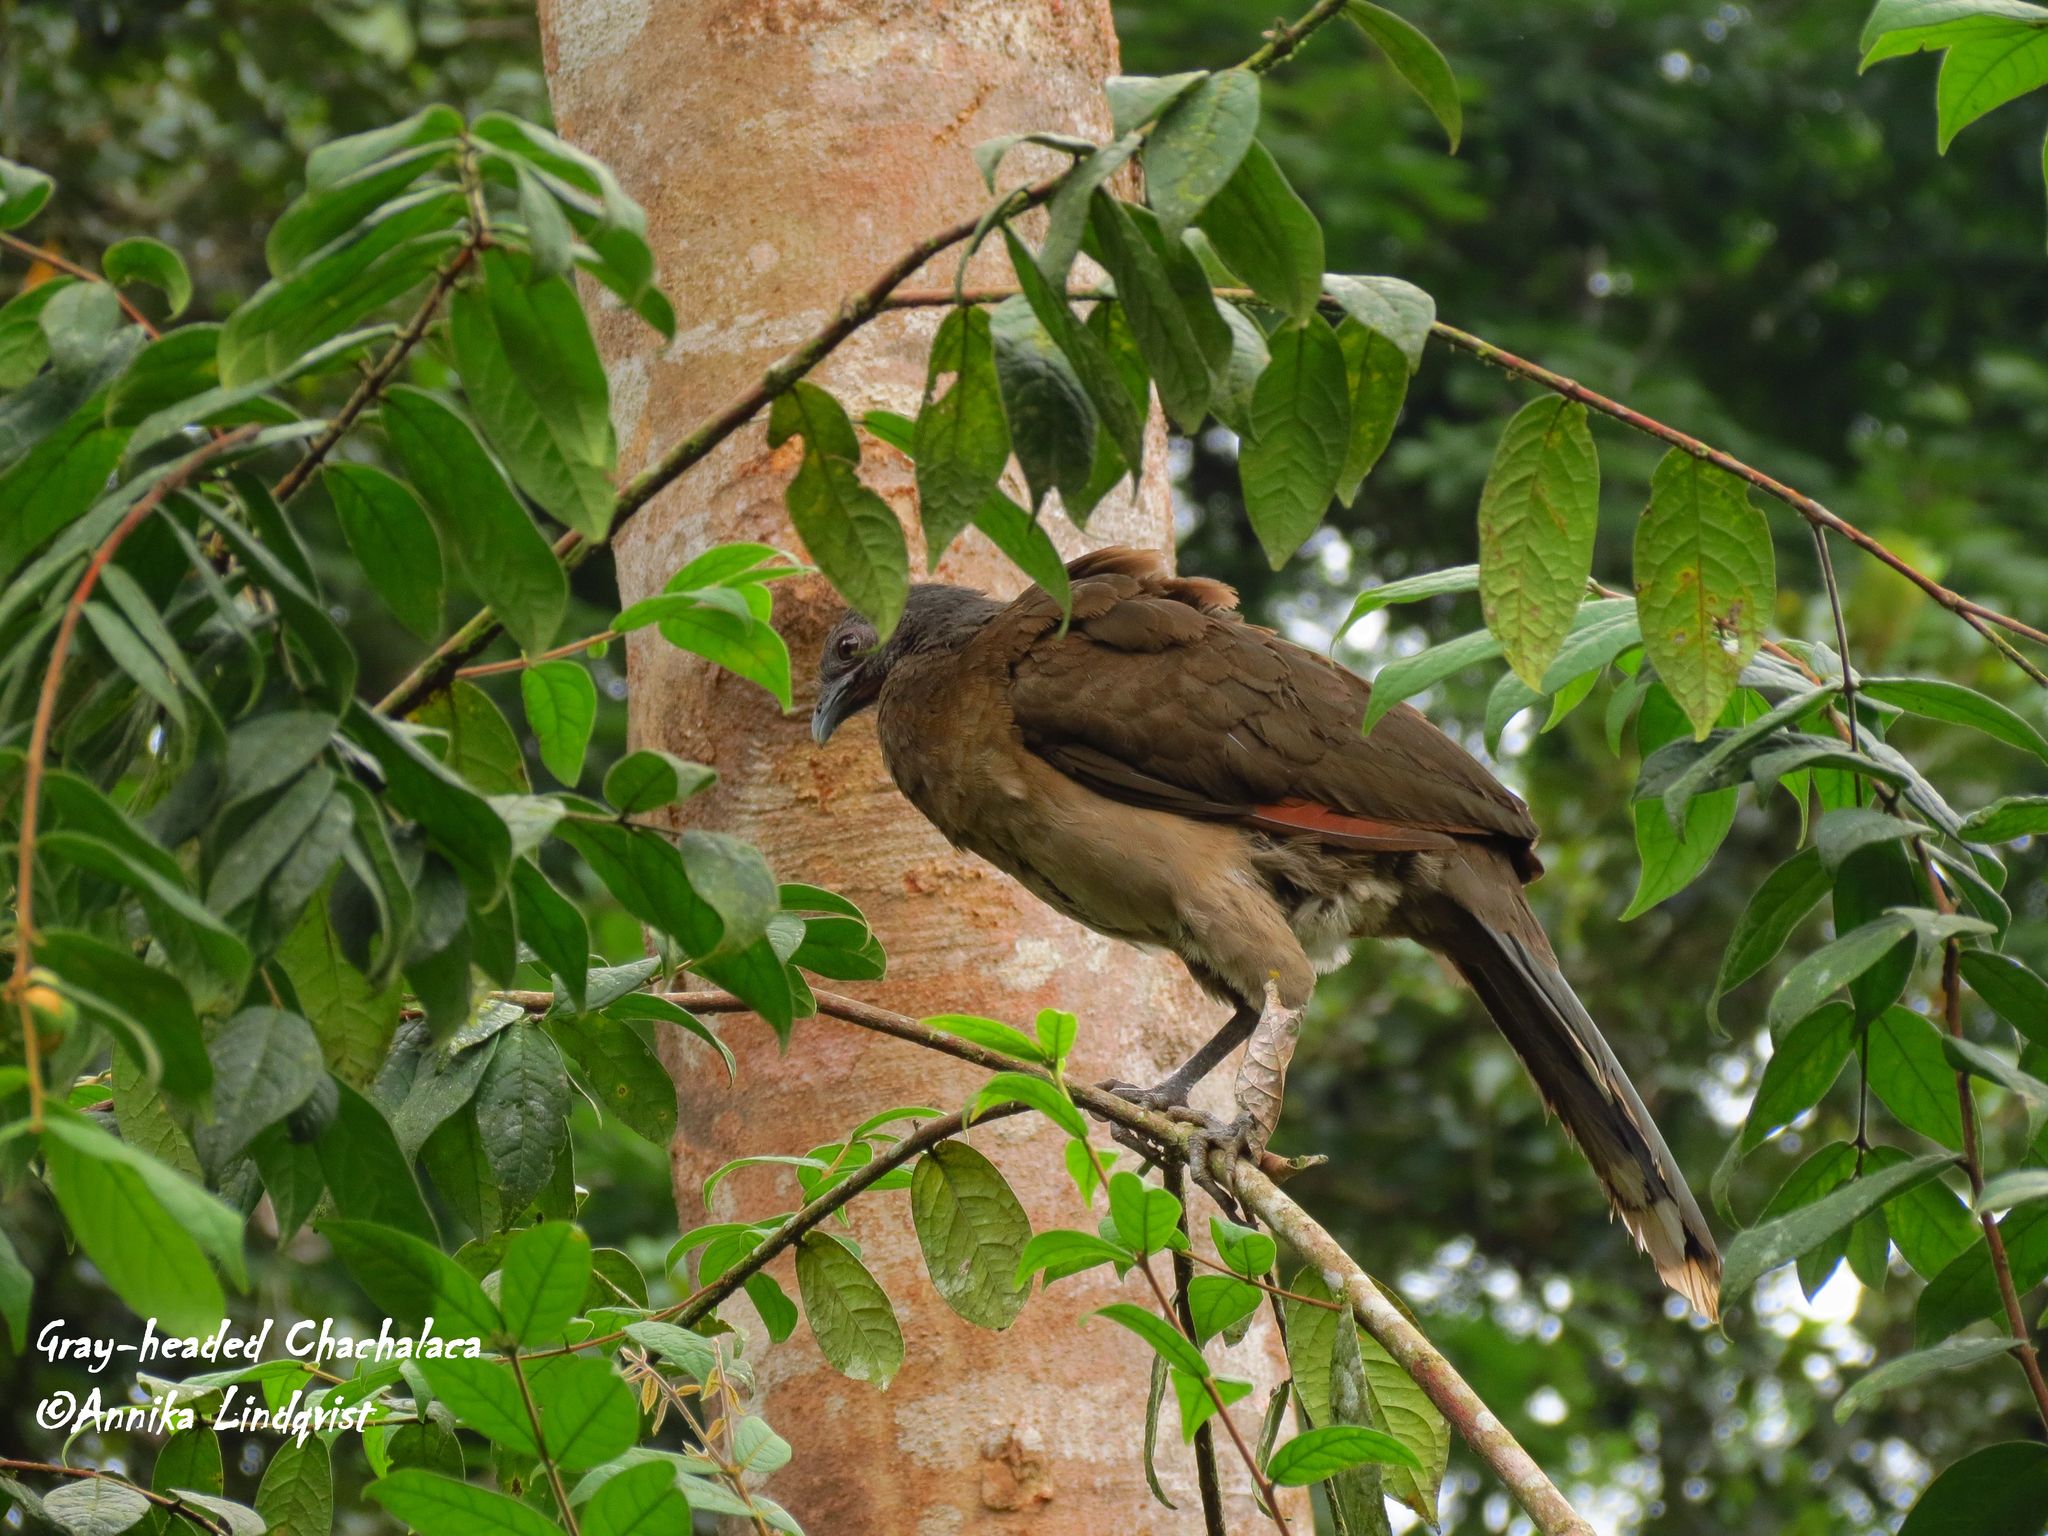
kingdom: Animalia
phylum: Chordata
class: Aves
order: Galliformes
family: Cracidae
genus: Ortalis
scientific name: Ortalis cinereiceps
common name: Grey-headed chachalaca
